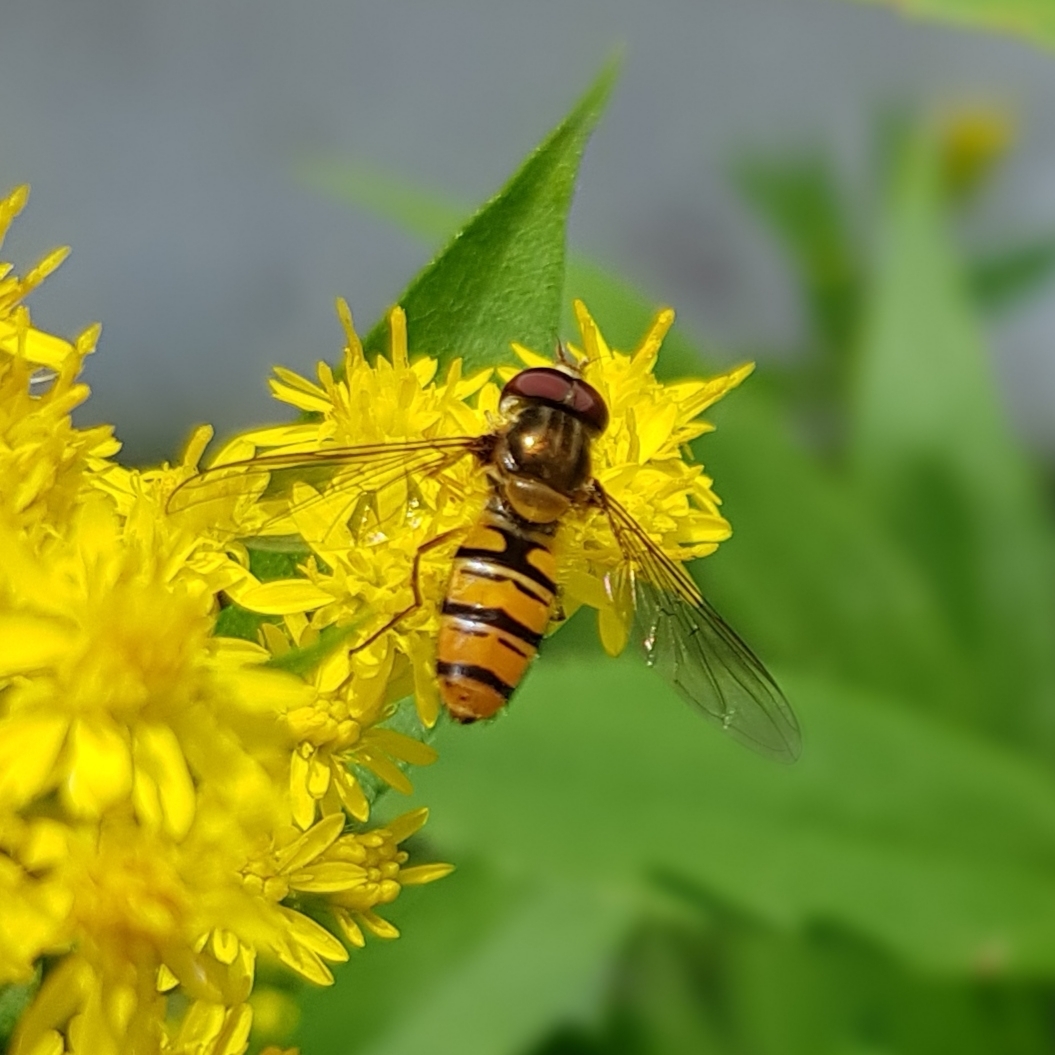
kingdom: Animalia
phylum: Arthropoda
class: Insecta
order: Diptera
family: Syrphidae
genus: Episyrphus
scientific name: Episyrphus balteatus
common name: Marmalade hoverfly
